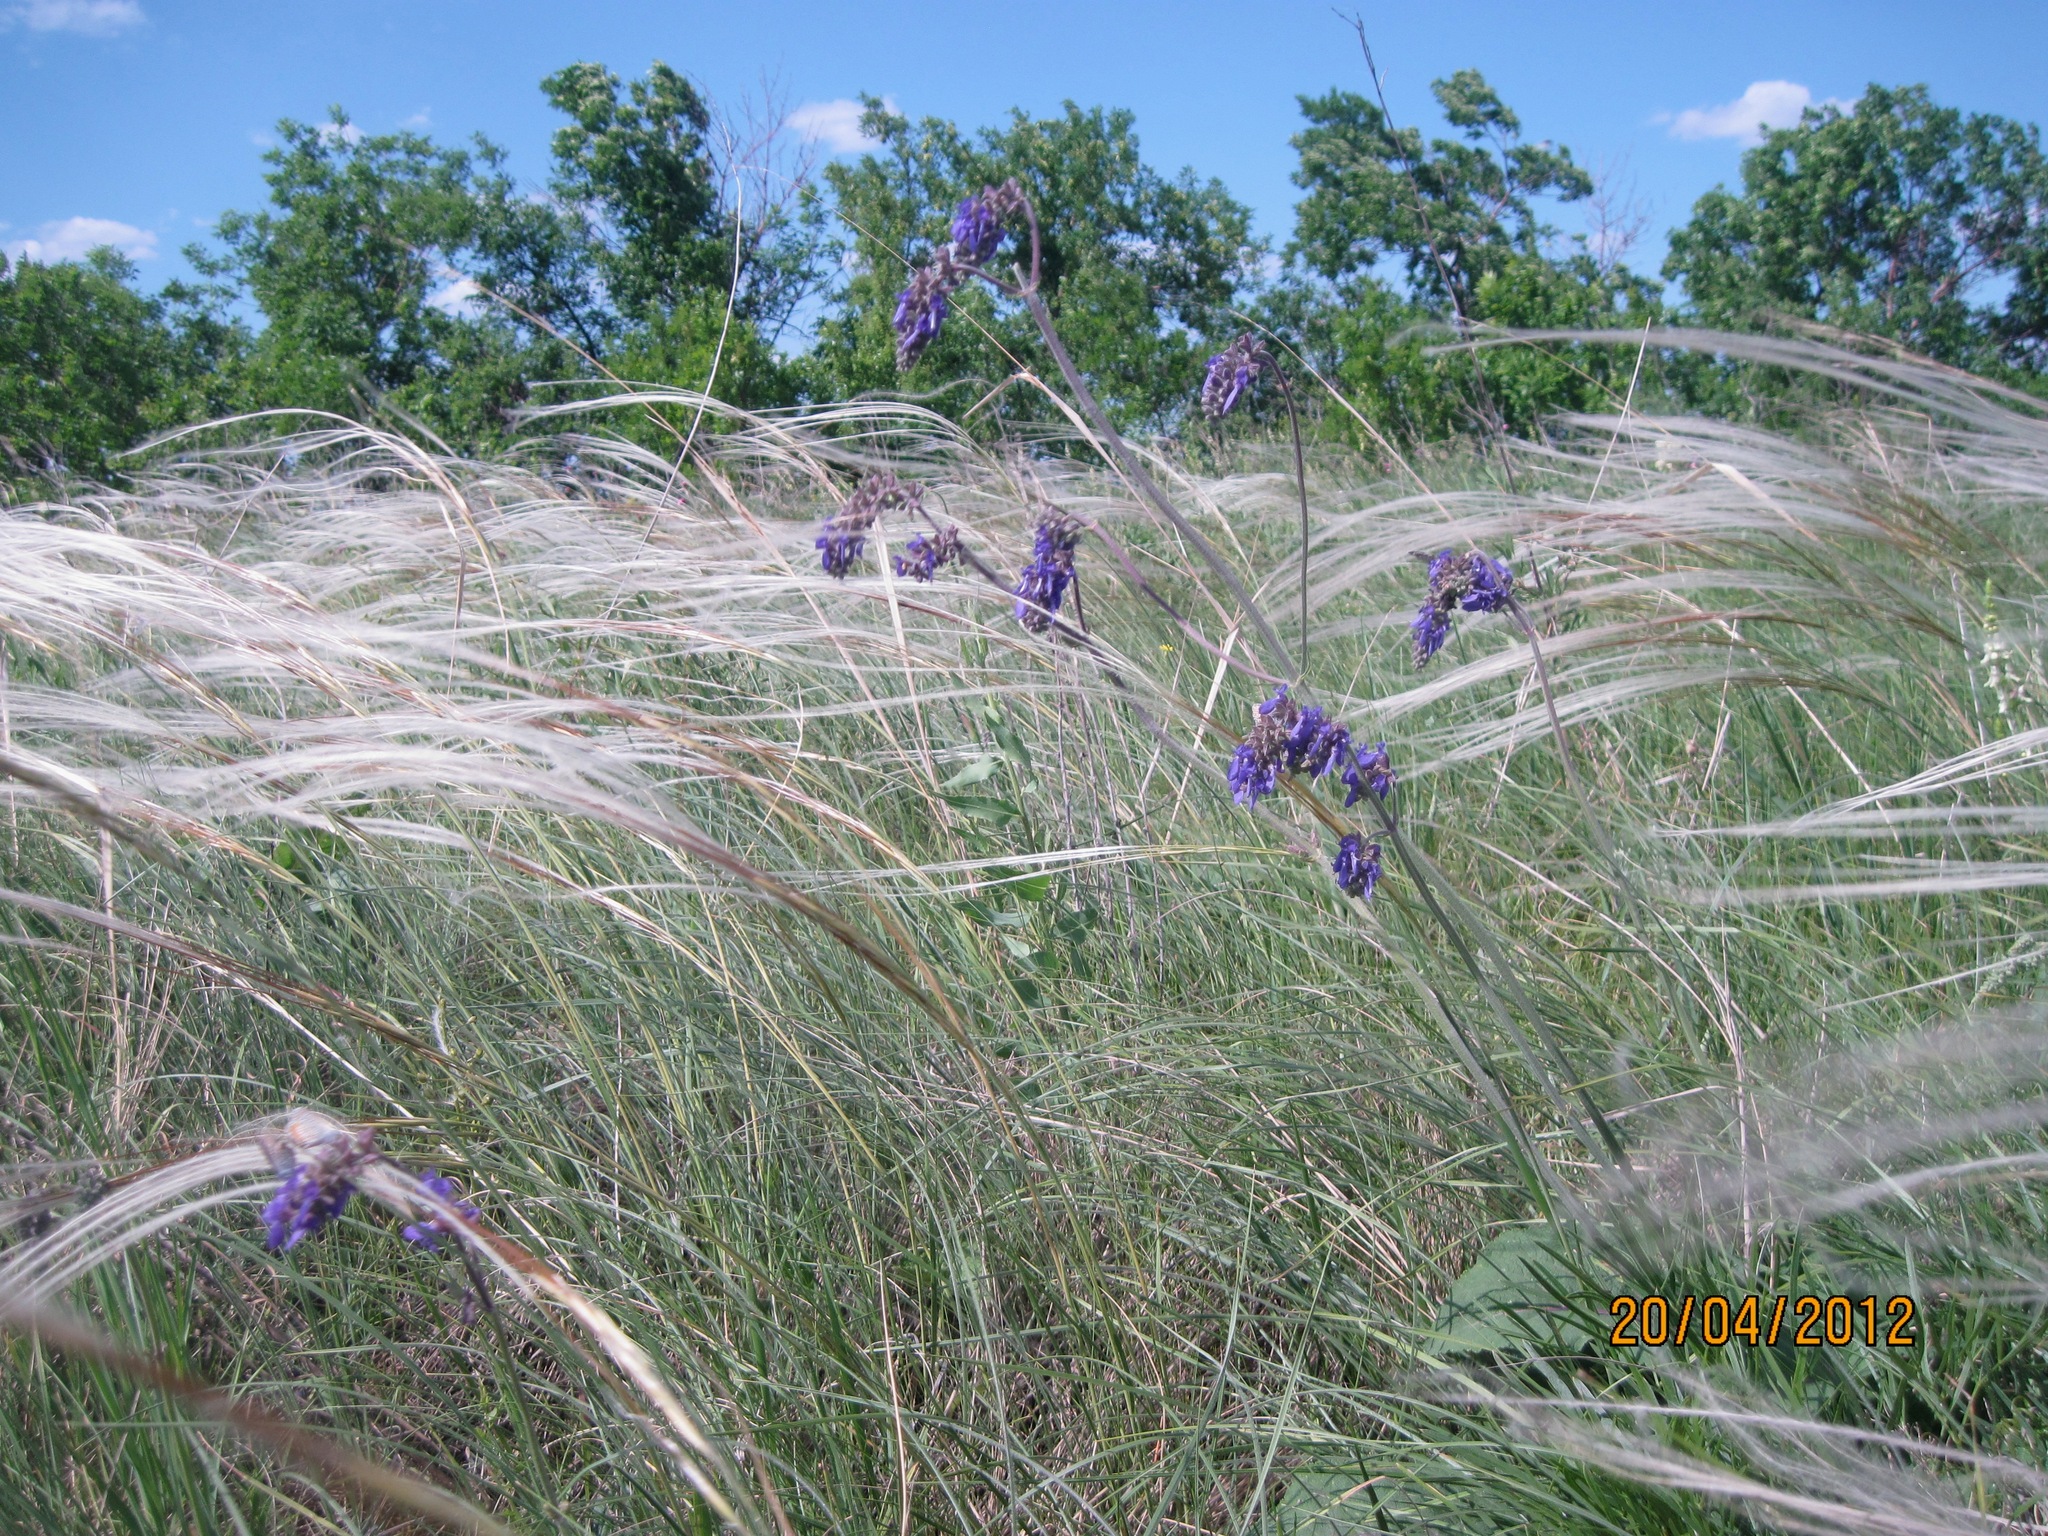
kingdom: Plantae
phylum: Tracheophyta
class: Magnoliopsida
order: Lamiales
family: Lamiaceae
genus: Salvia
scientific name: Salvia nutans
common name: Nodding sage
